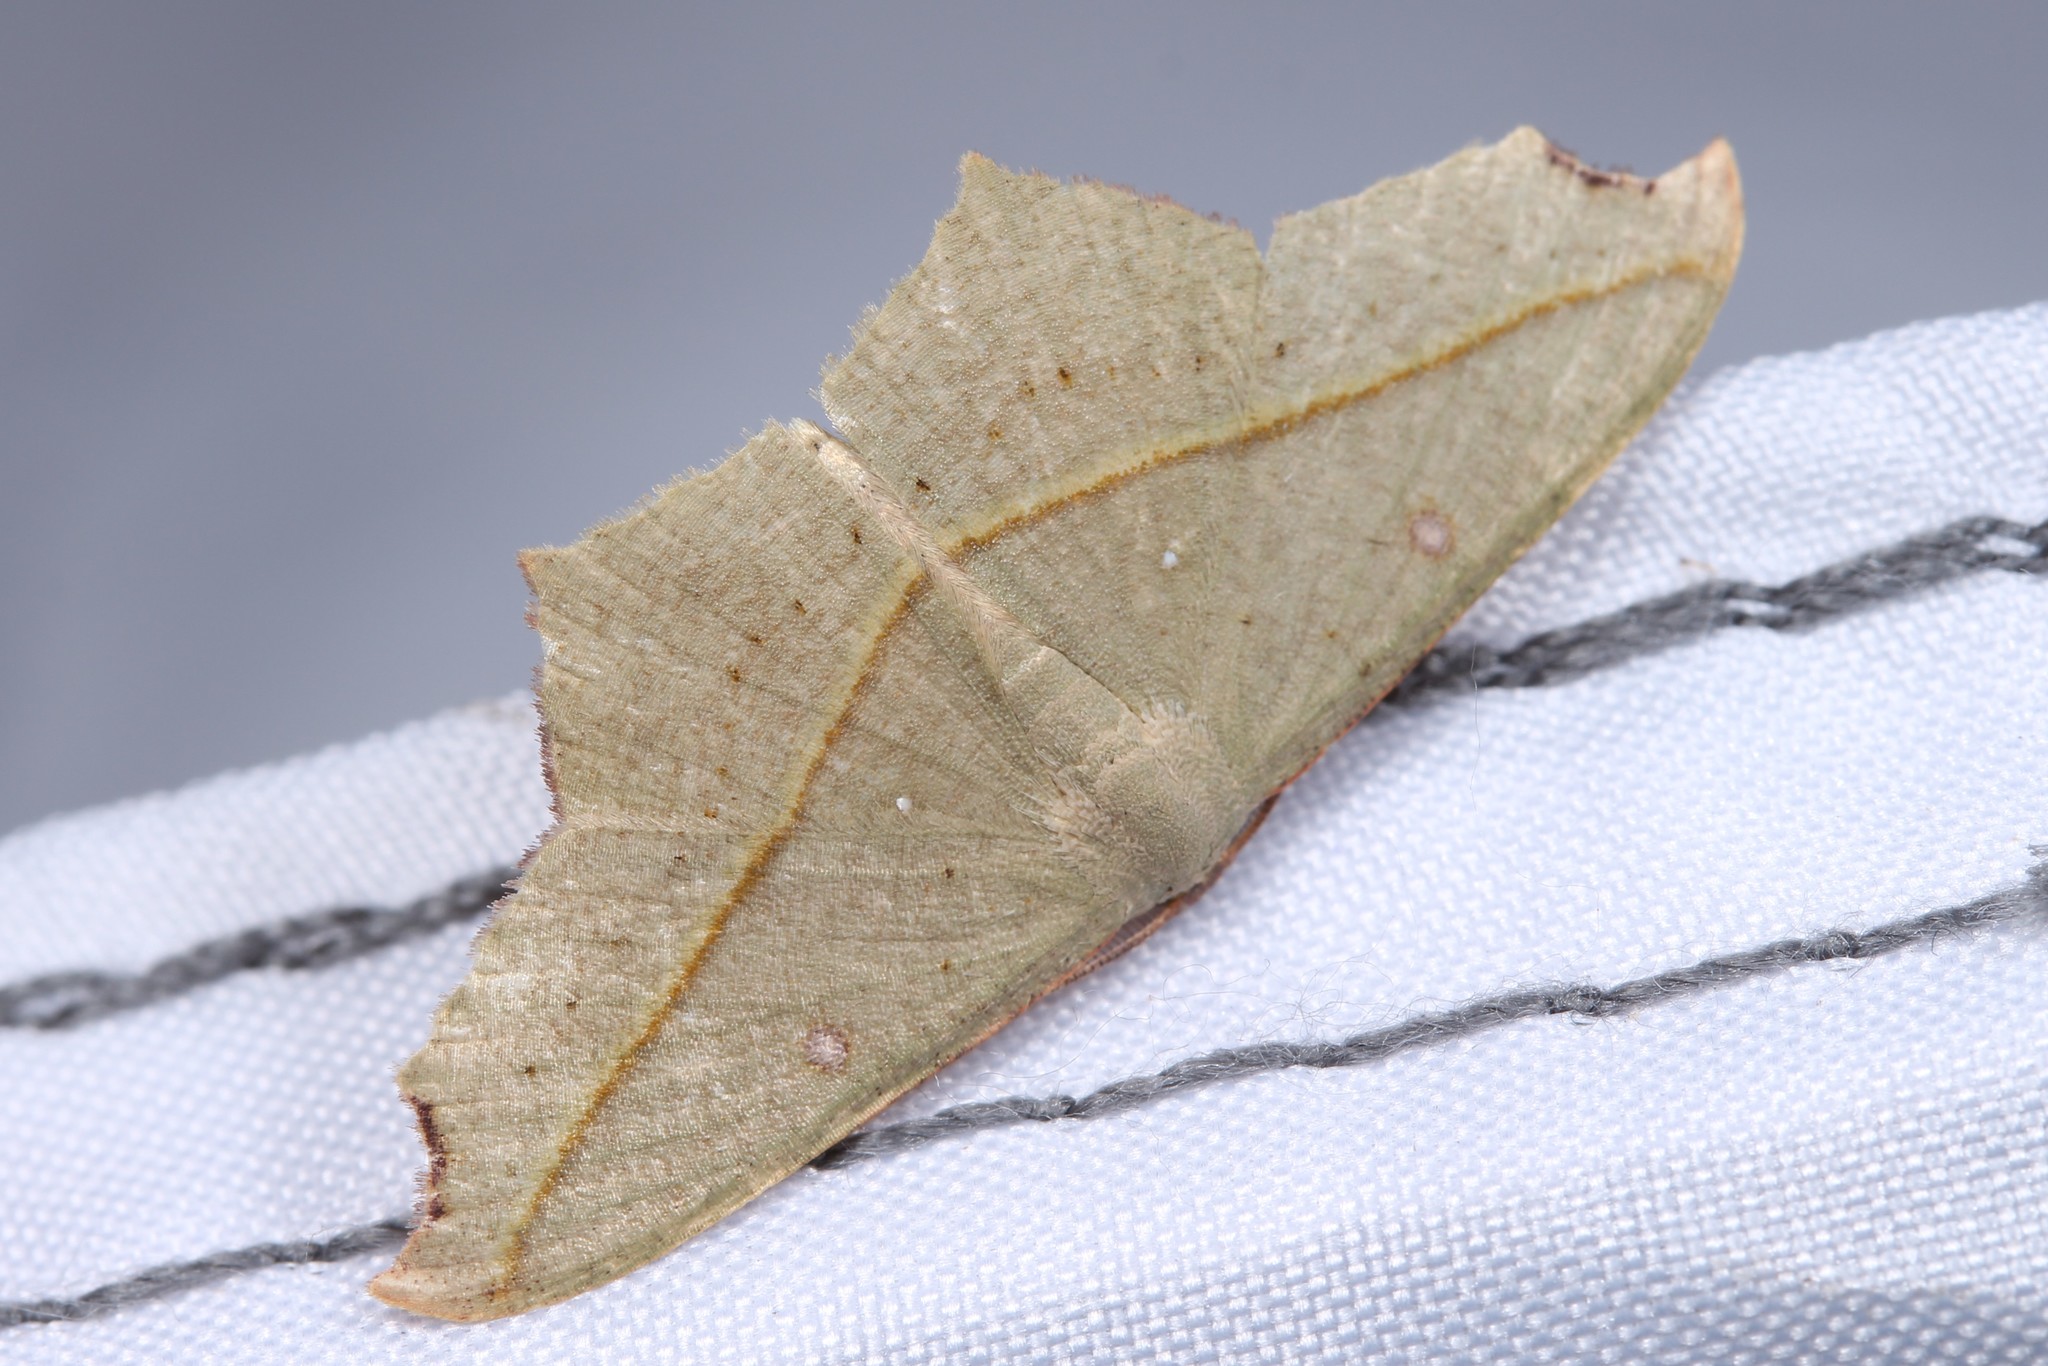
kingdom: Animalia
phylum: Arthropoda
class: Insecta
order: Lepidoptera
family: Geometridae
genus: Traminda
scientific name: Traminda aventiaria
